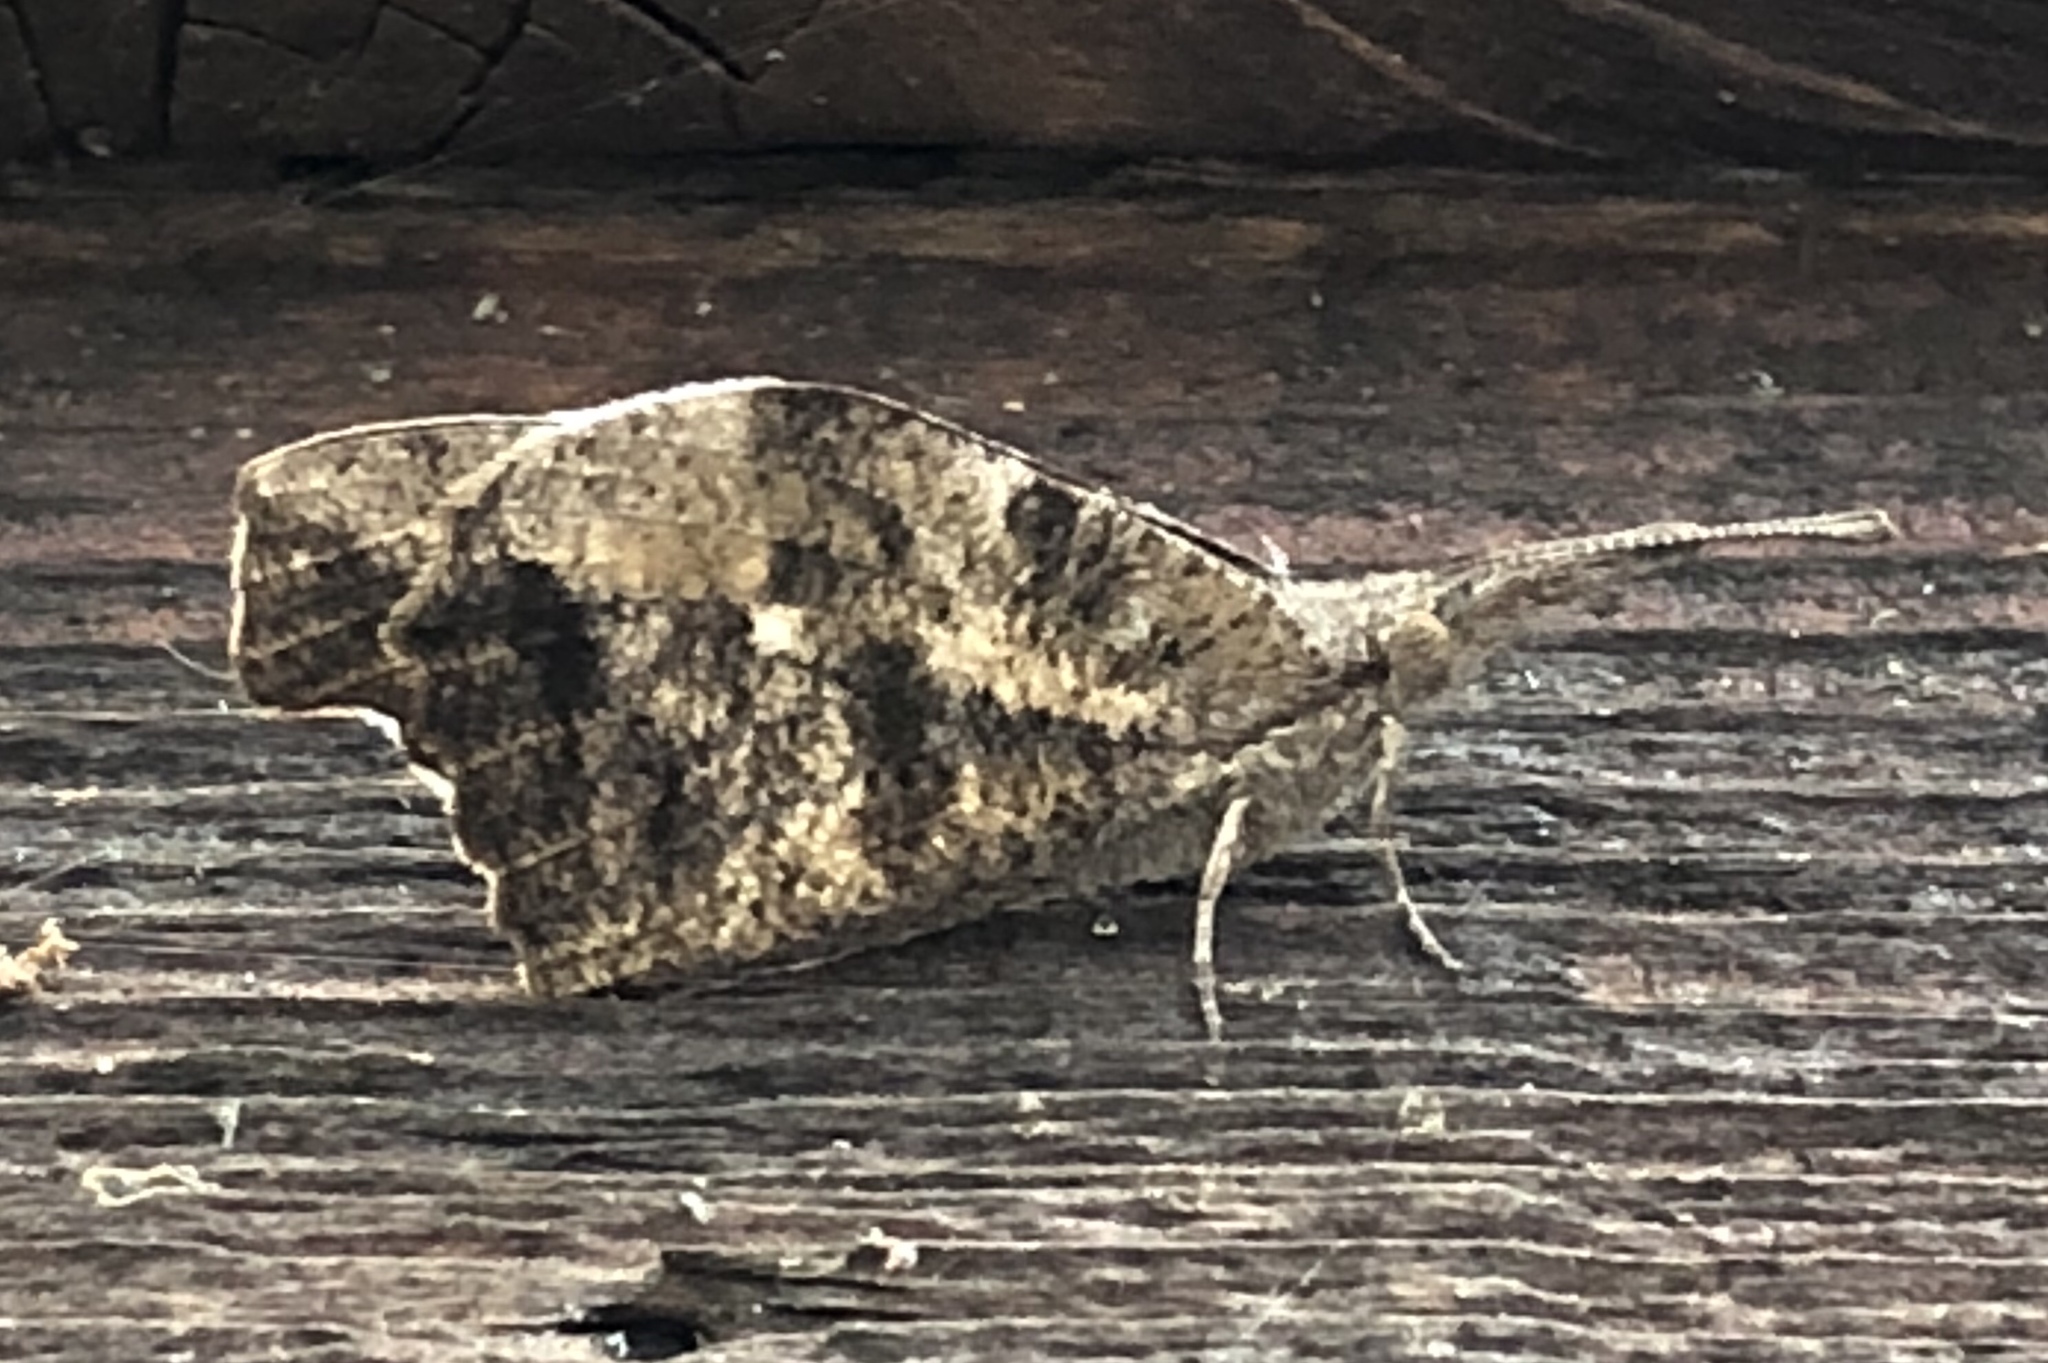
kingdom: Animalia
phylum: Arthropoda
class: Insecta
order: Lepidoptera
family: Nymphalidae
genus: Libytheana
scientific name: Libytheana carinenta
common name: American snout
